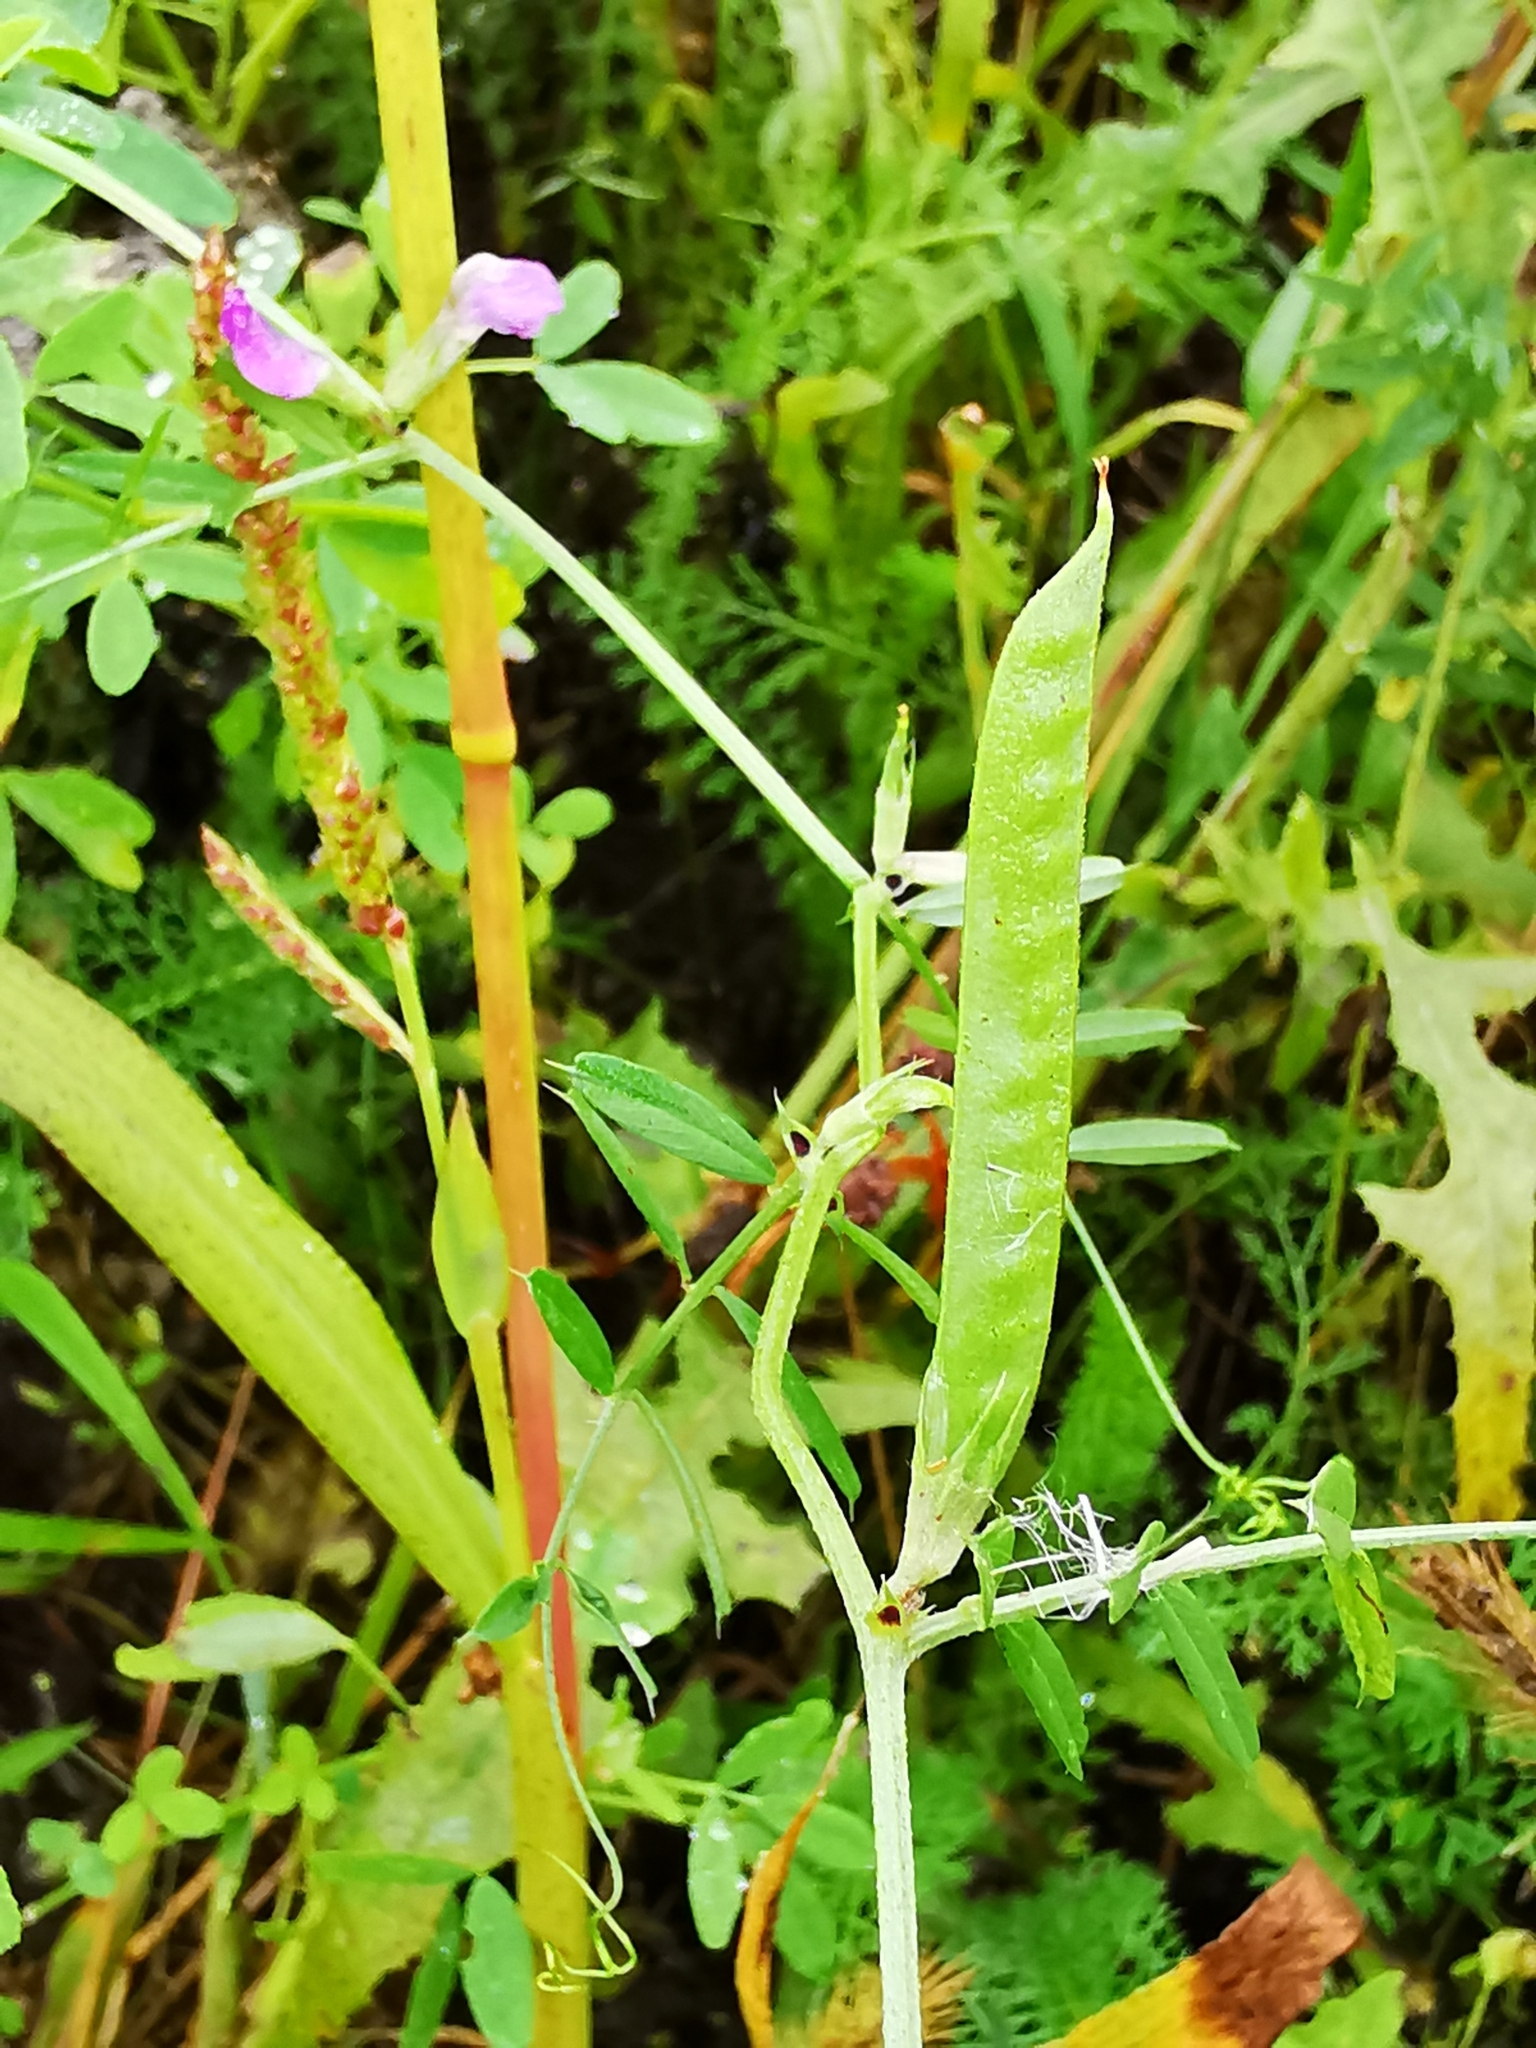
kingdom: Plantae
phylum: Tracheophyta
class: Magnoliopsida
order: Fabales
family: Fabaceae
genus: Vicia
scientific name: Vicia sativa
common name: Garden vetch
